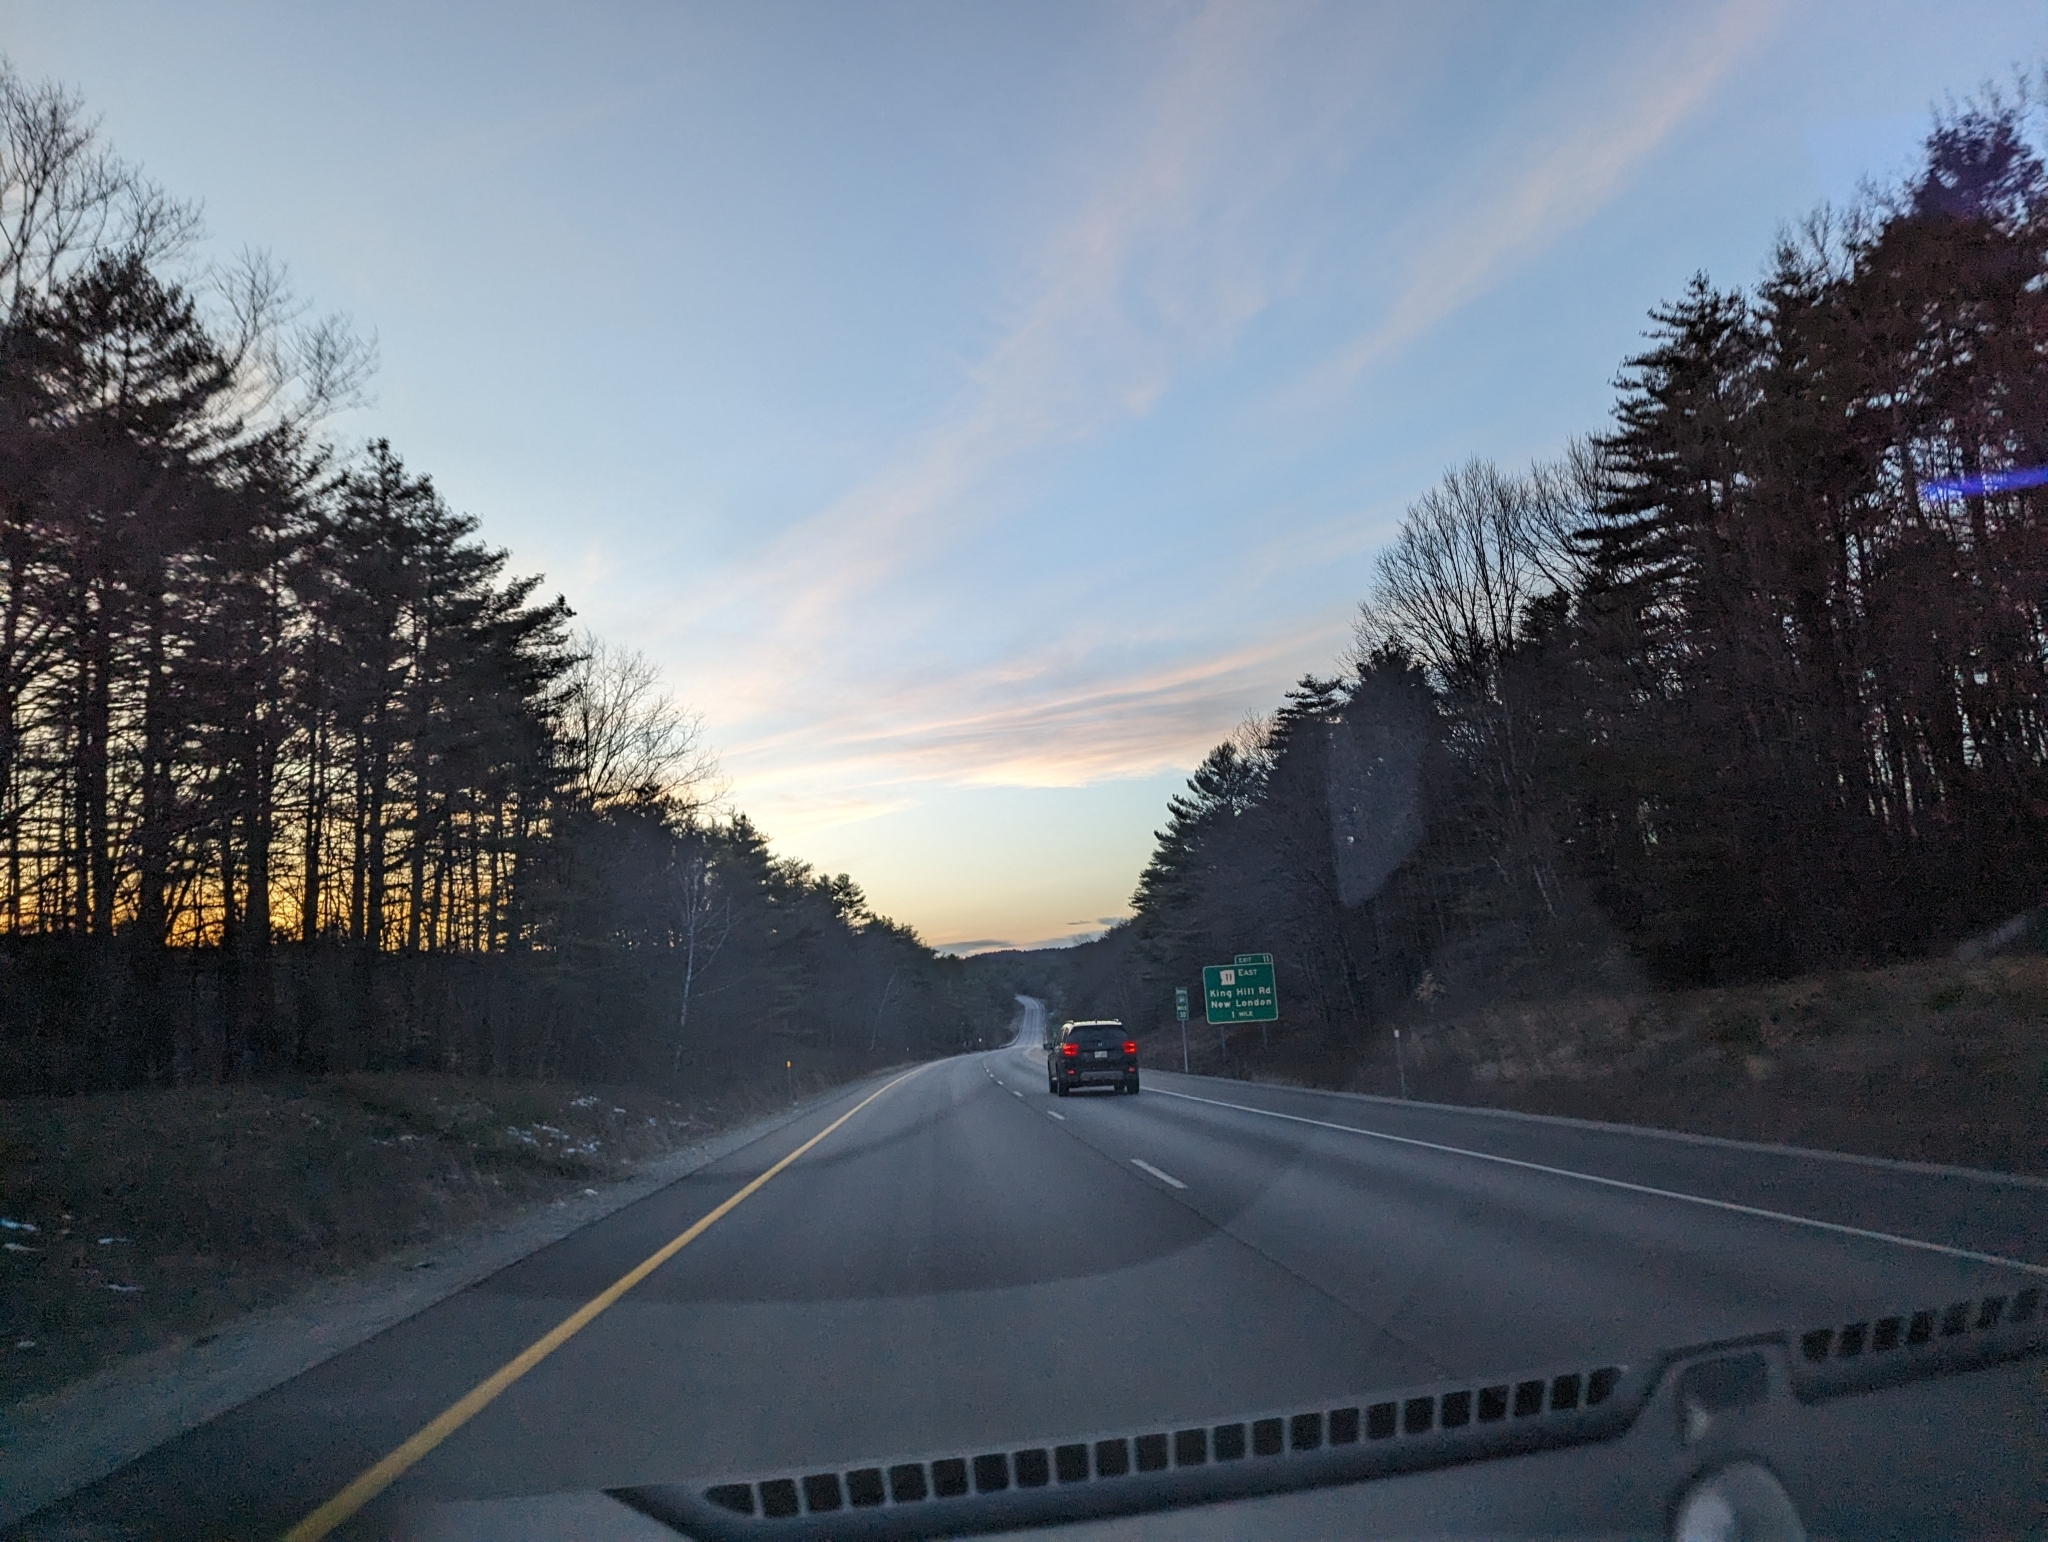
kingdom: Plantae
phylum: Tracheophyta
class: Pinopsida
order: Pinales
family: Pinaceae
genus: Pinus
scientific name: Pinus strobus
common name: Weymouth pine
